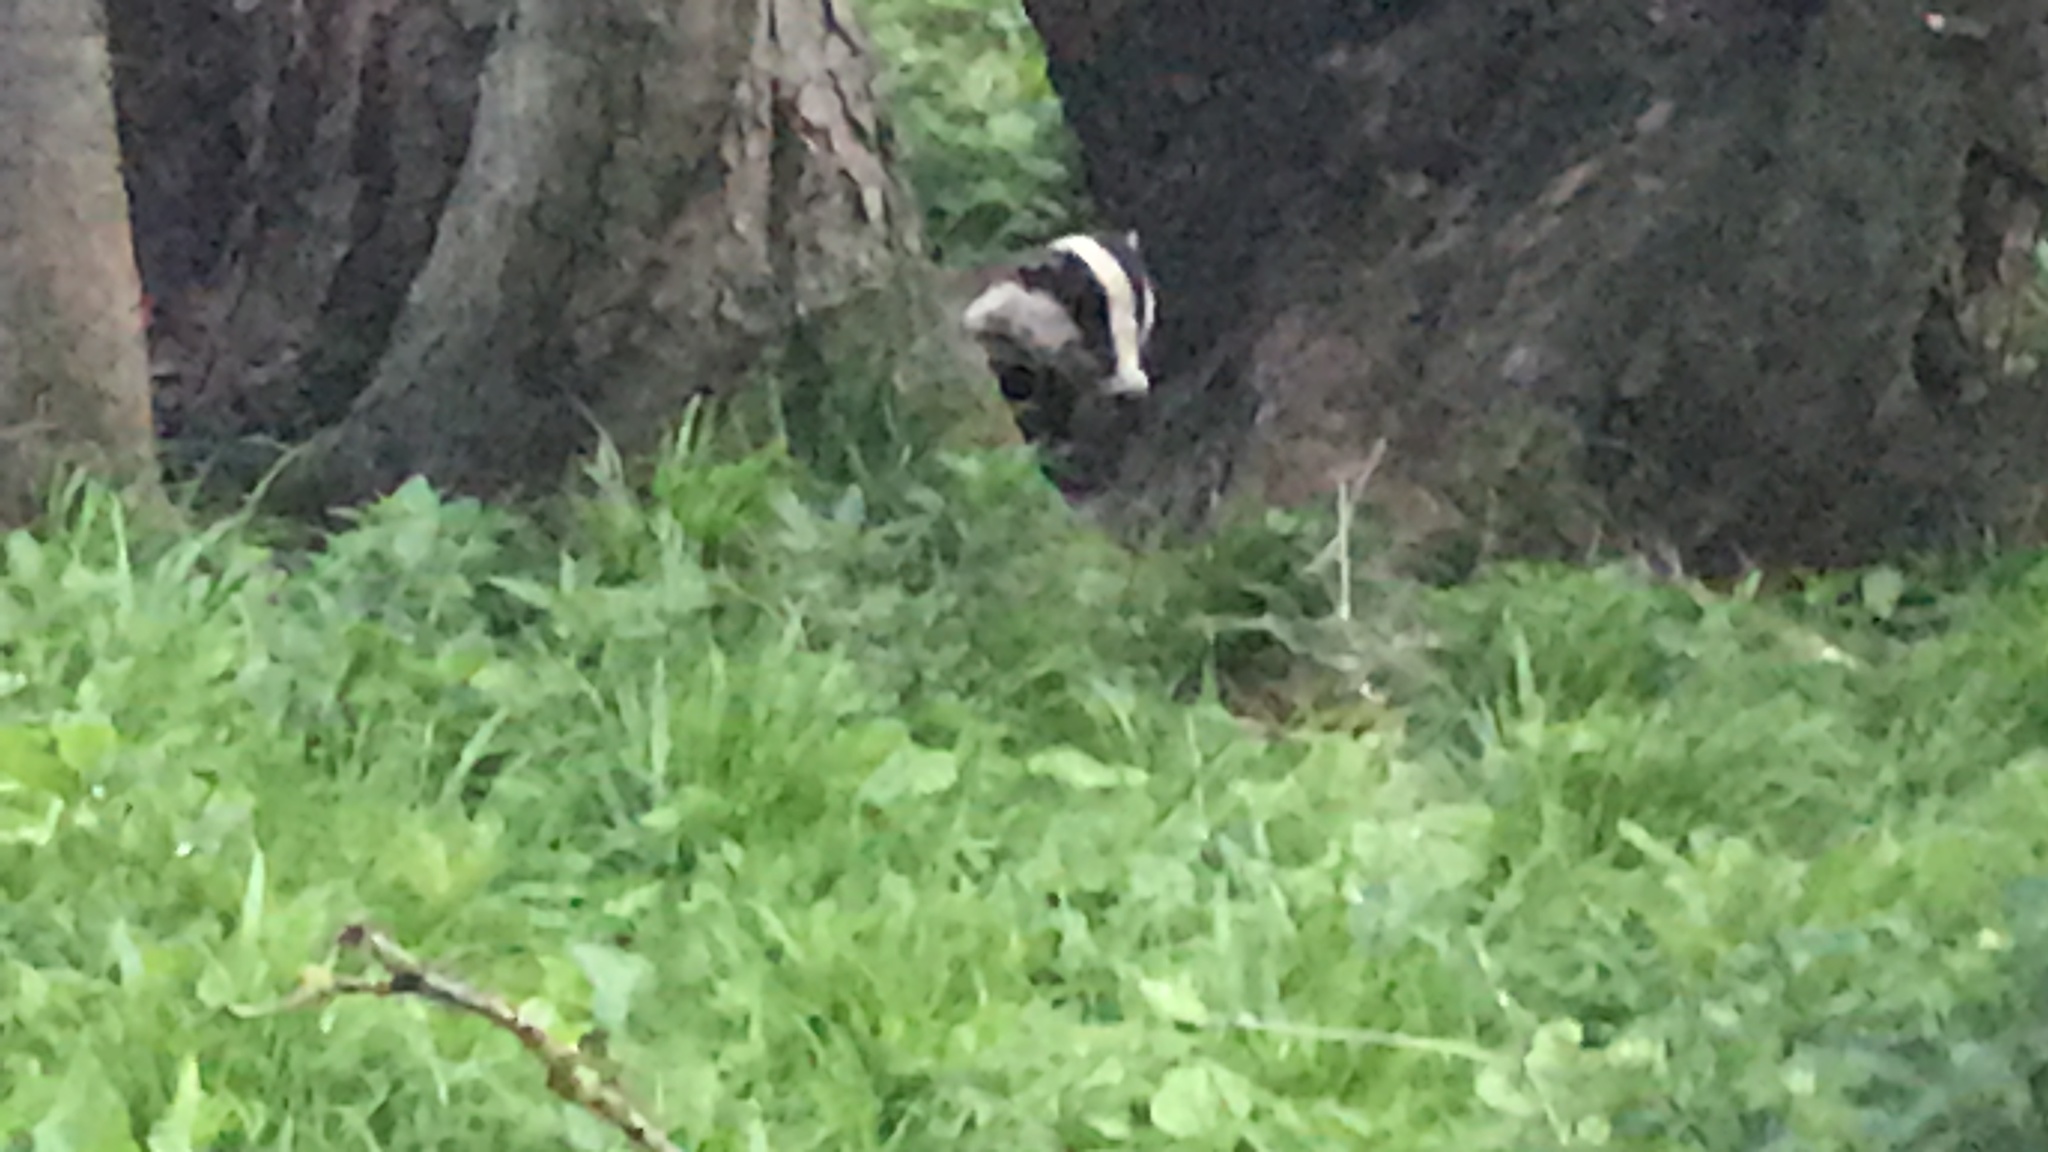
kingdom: Animalia
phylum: Chordata
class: Mammalia
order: Carnivora
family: Mustelidae
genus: Meles
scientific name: Meles meles
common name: Eurasian badger
